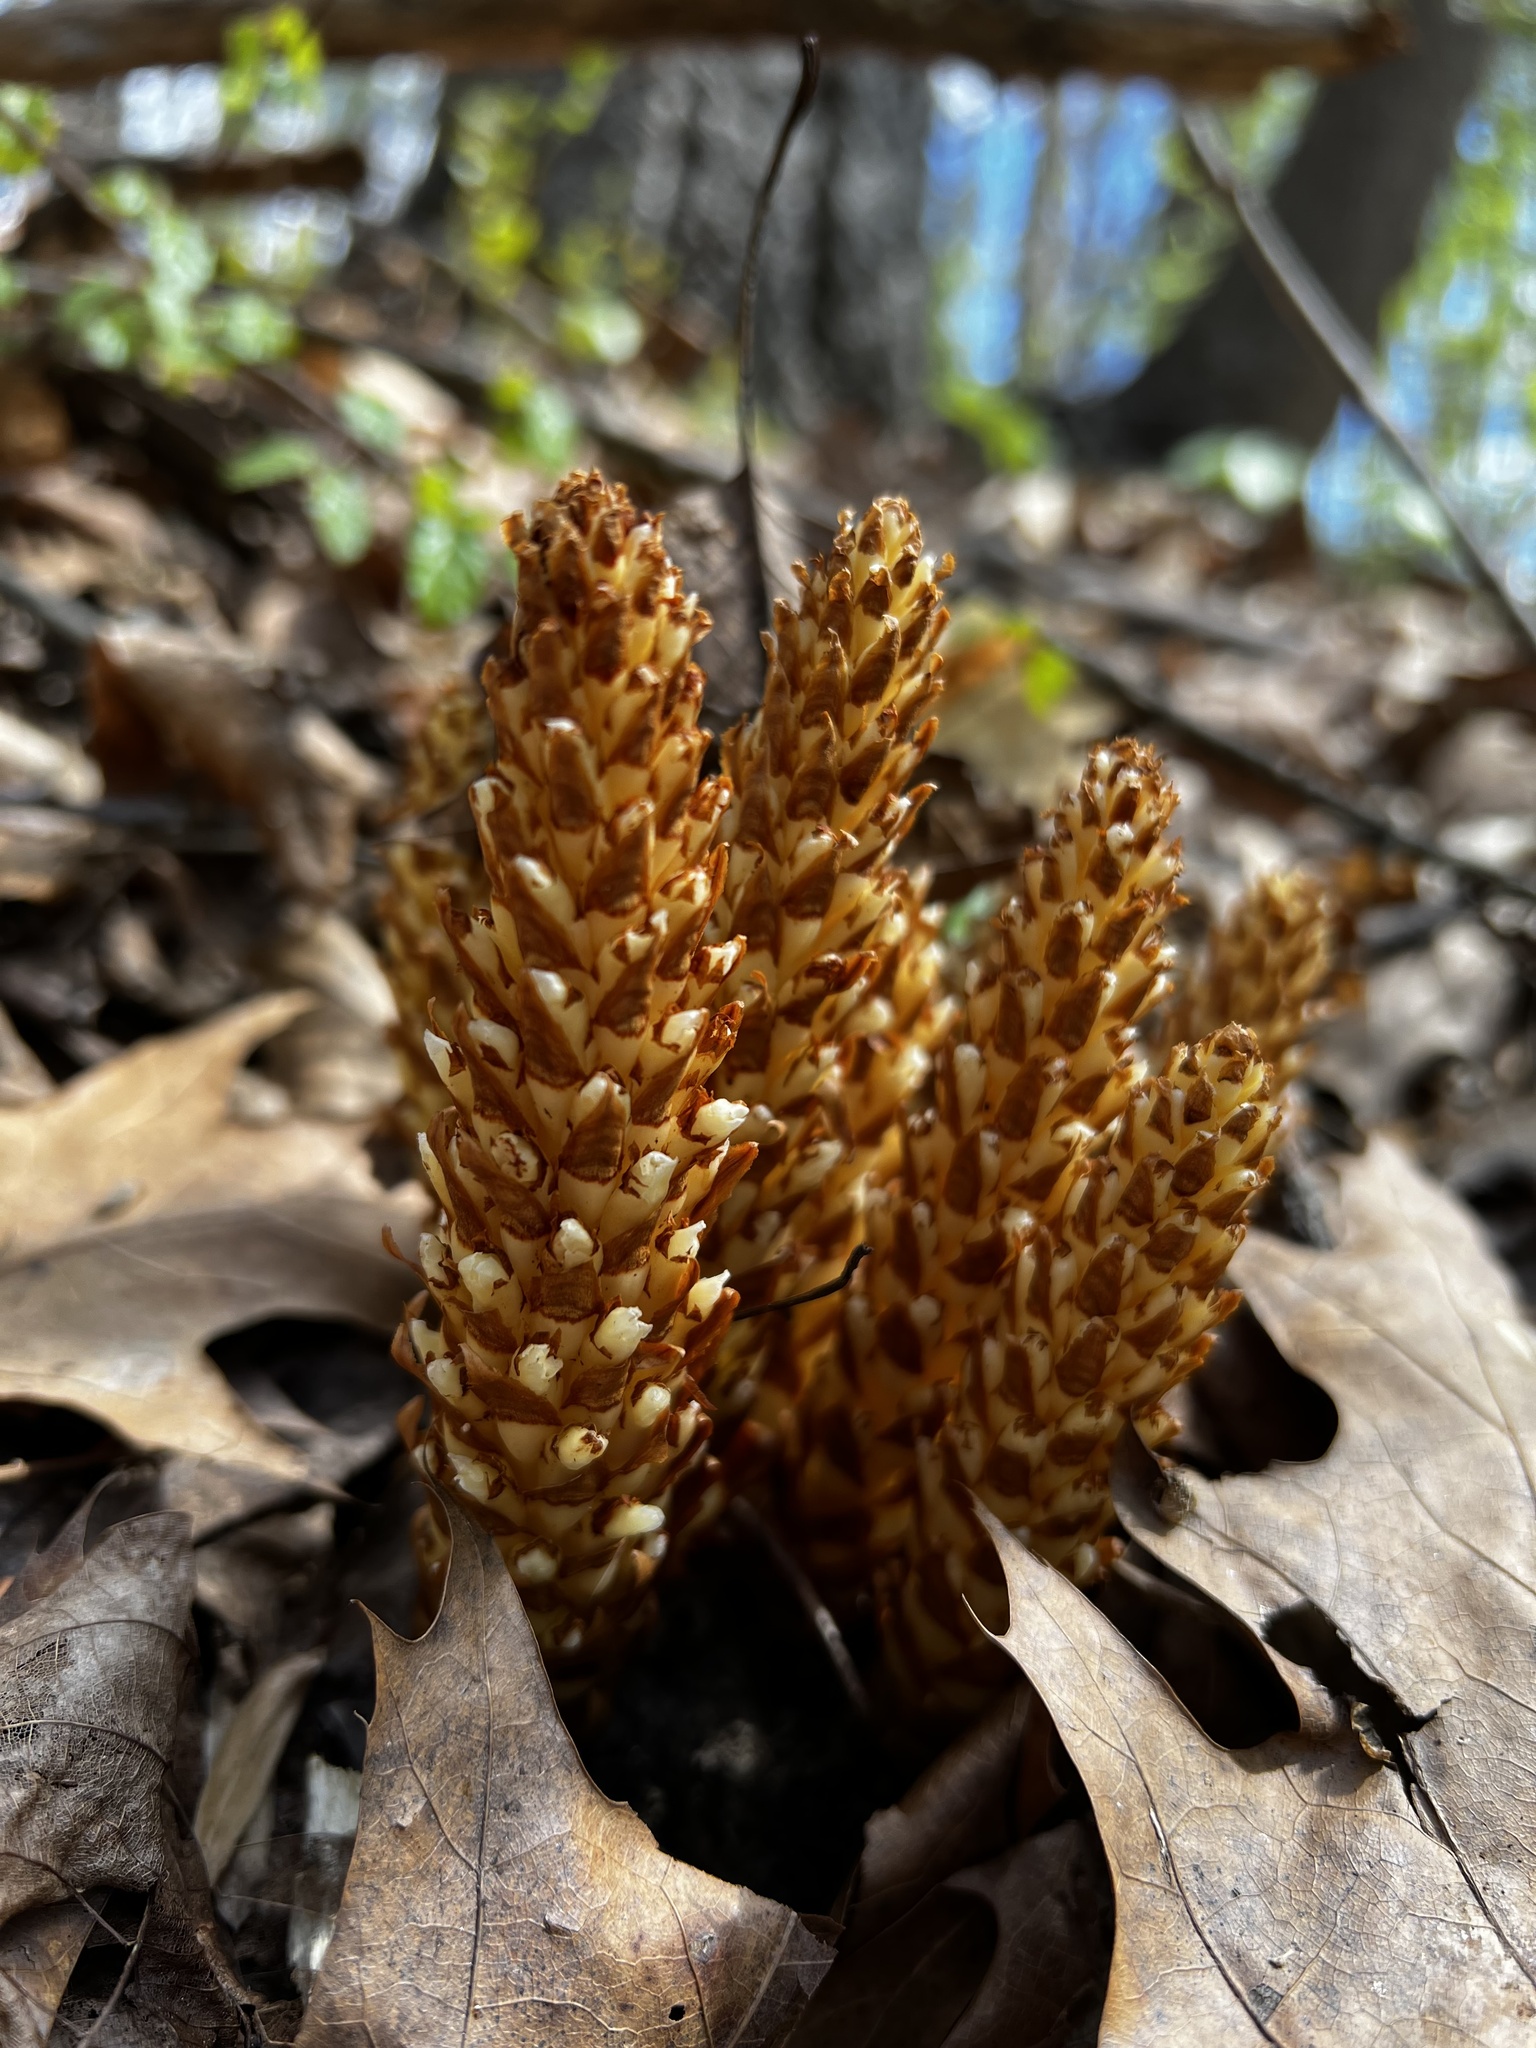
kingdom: Plantae
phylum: Tracheophyta
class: Magnoliopsida
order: Lamiales
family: Orobanchaceae
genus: Conopholis
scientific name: Conopholis americana
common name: American cancer-root
